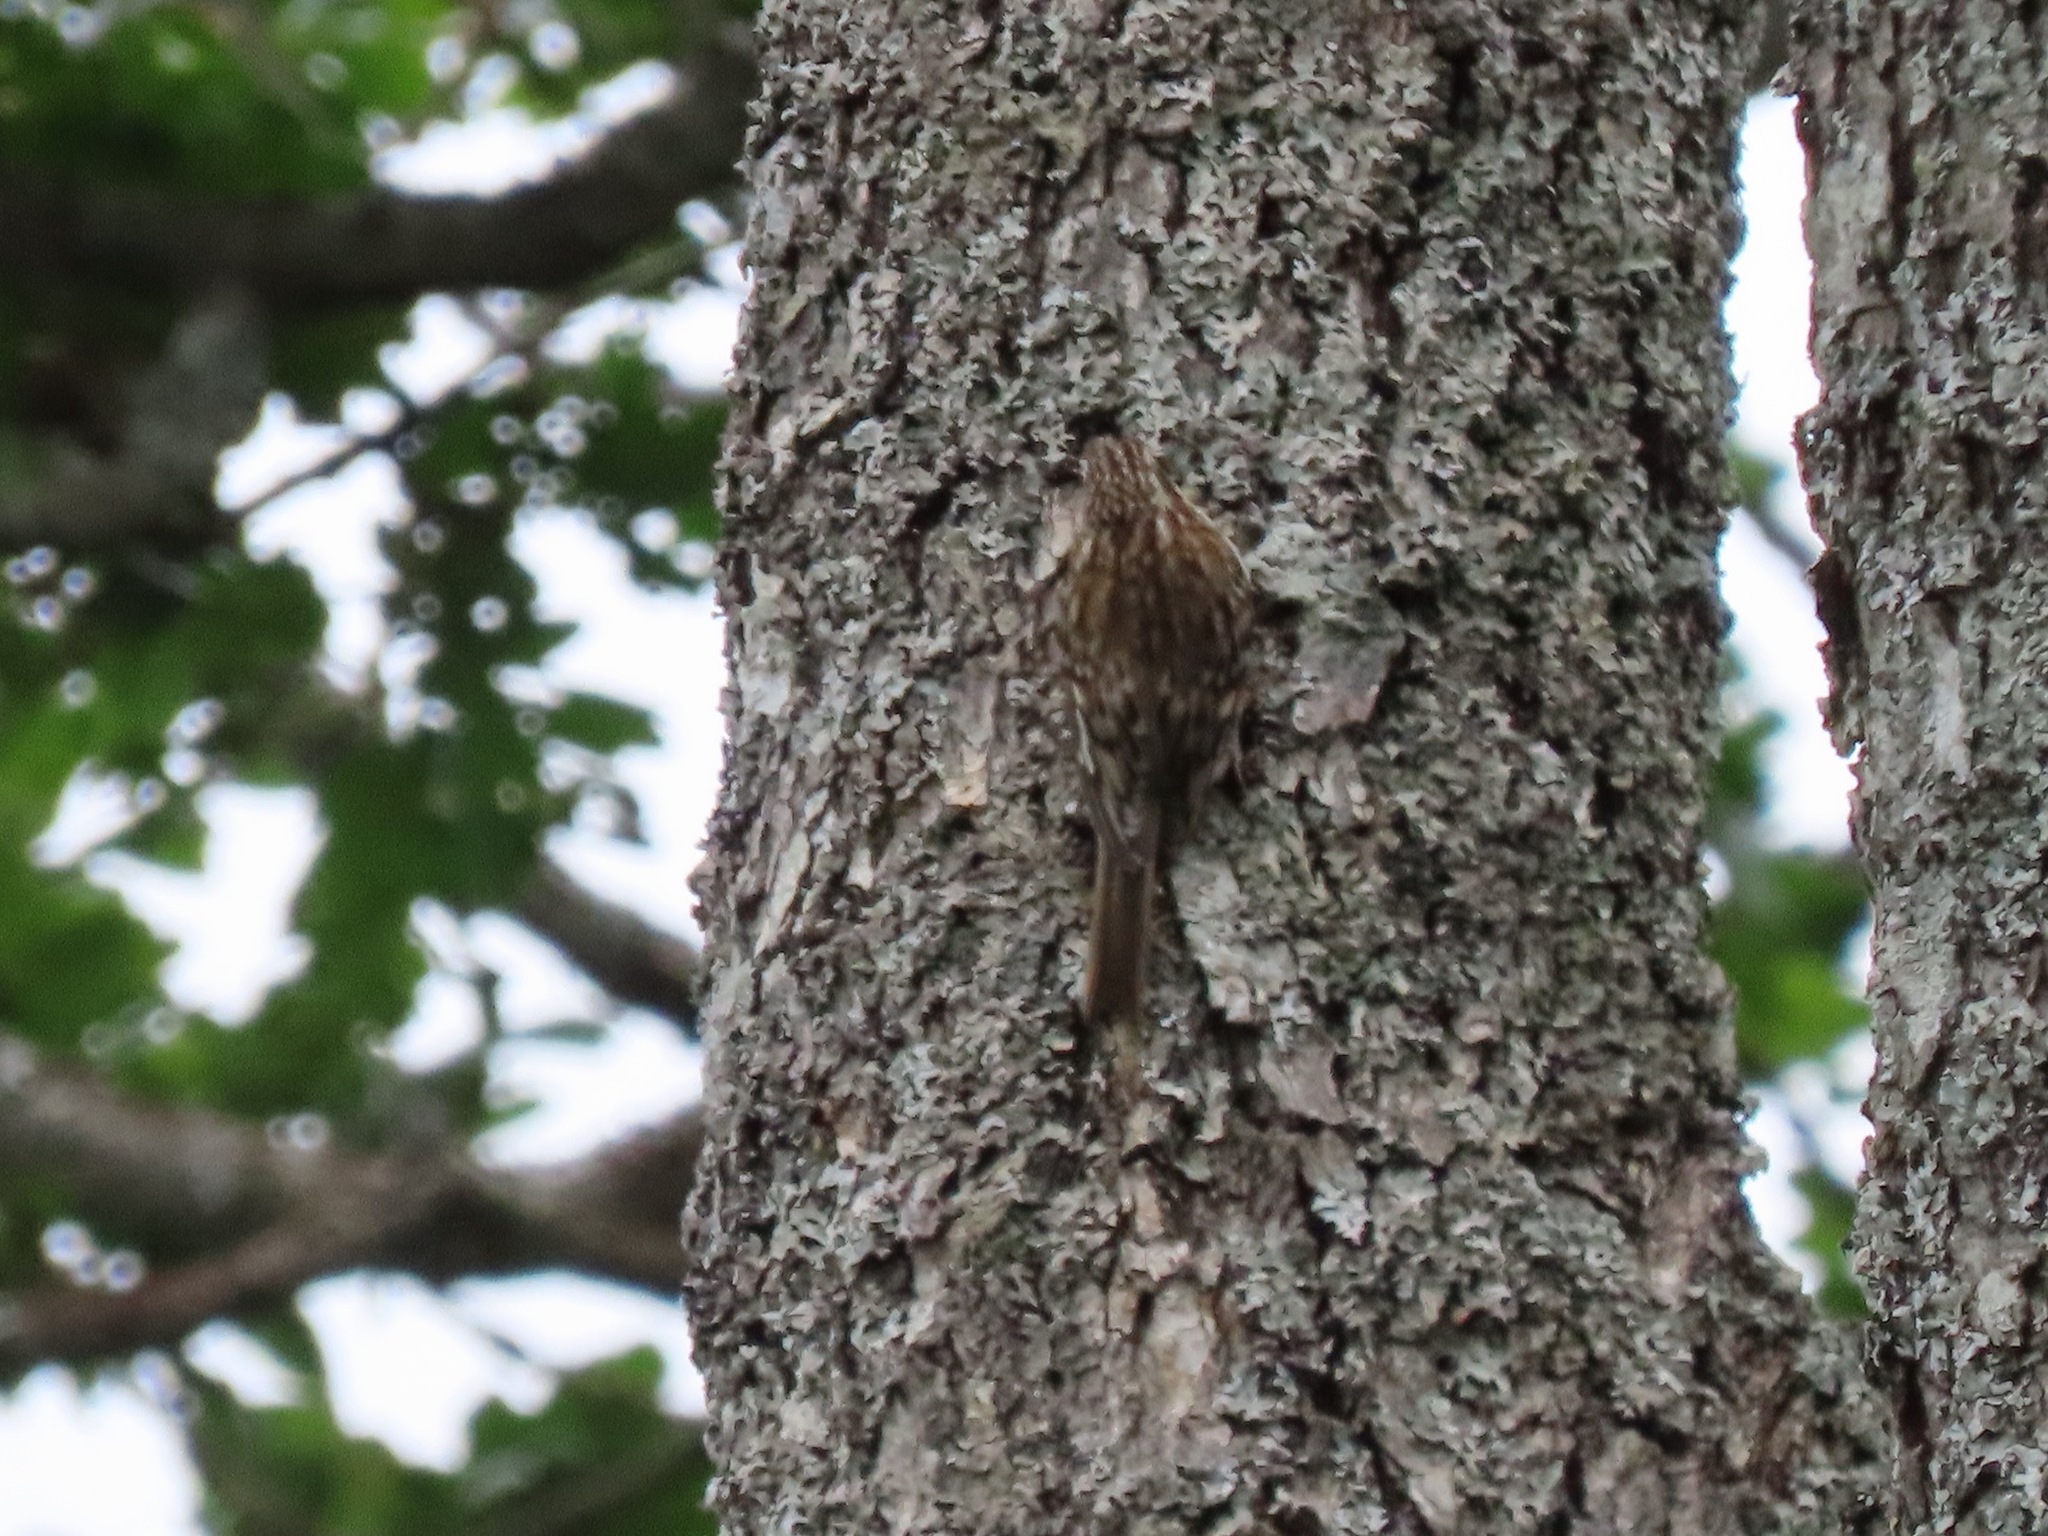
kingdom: Animalia
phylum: Chordata
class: Aves
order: Passeriformes
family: Certhiidae
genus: Certhia
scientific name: Certhia americana
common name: Brown creeper
